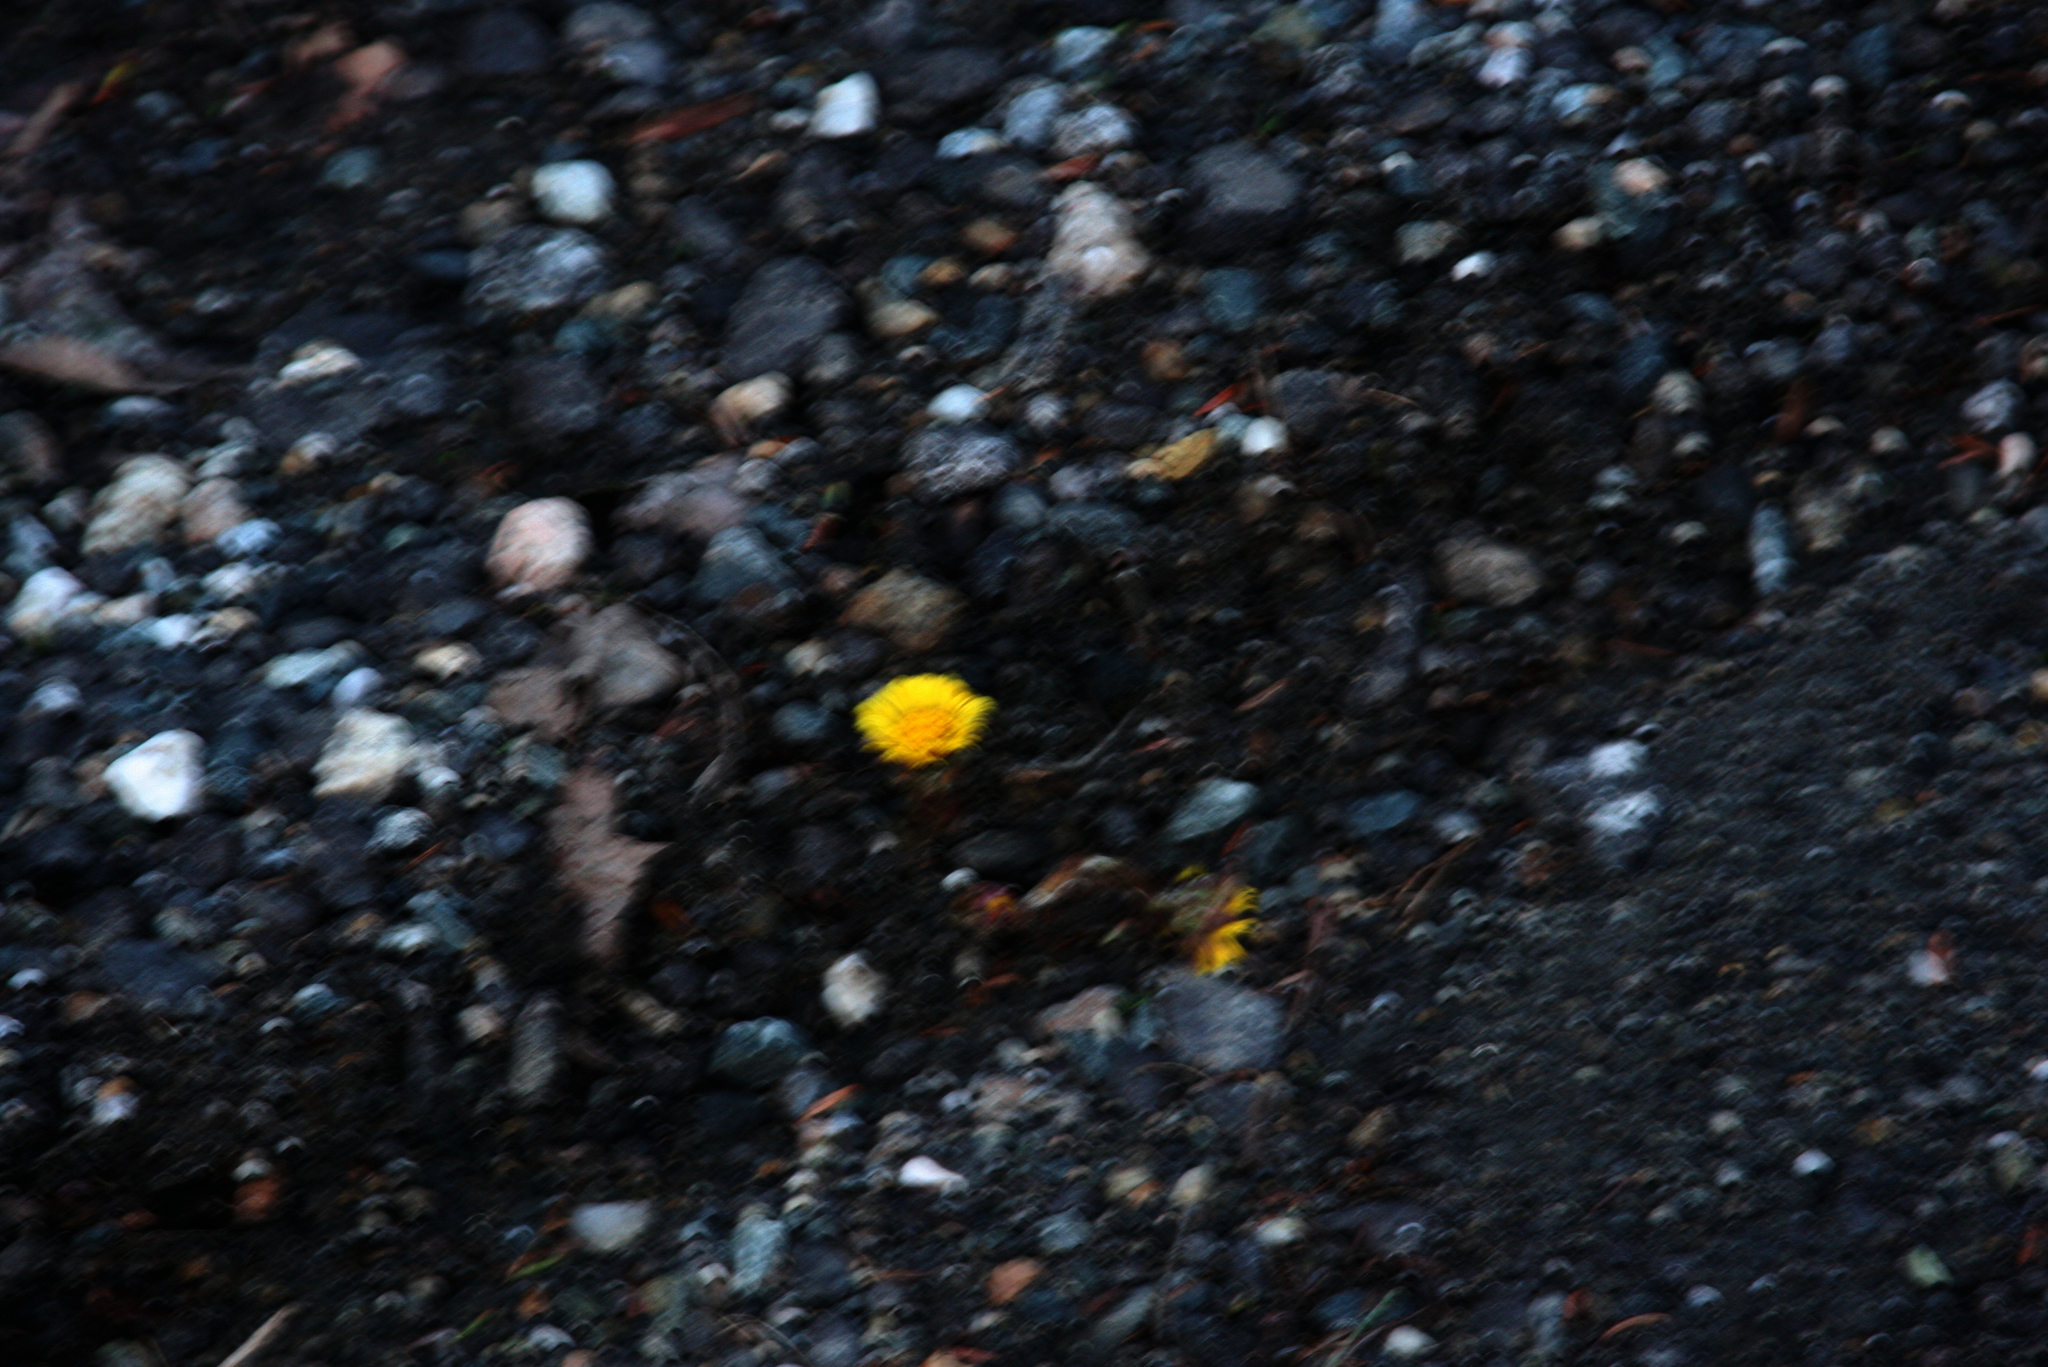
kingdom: Plantae
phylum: Tracheophyta
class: Magnoliopsida
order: Asterales
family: Asteraceae
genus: Tussilago
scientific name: Tussilago farfara
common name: Coltsfoot
